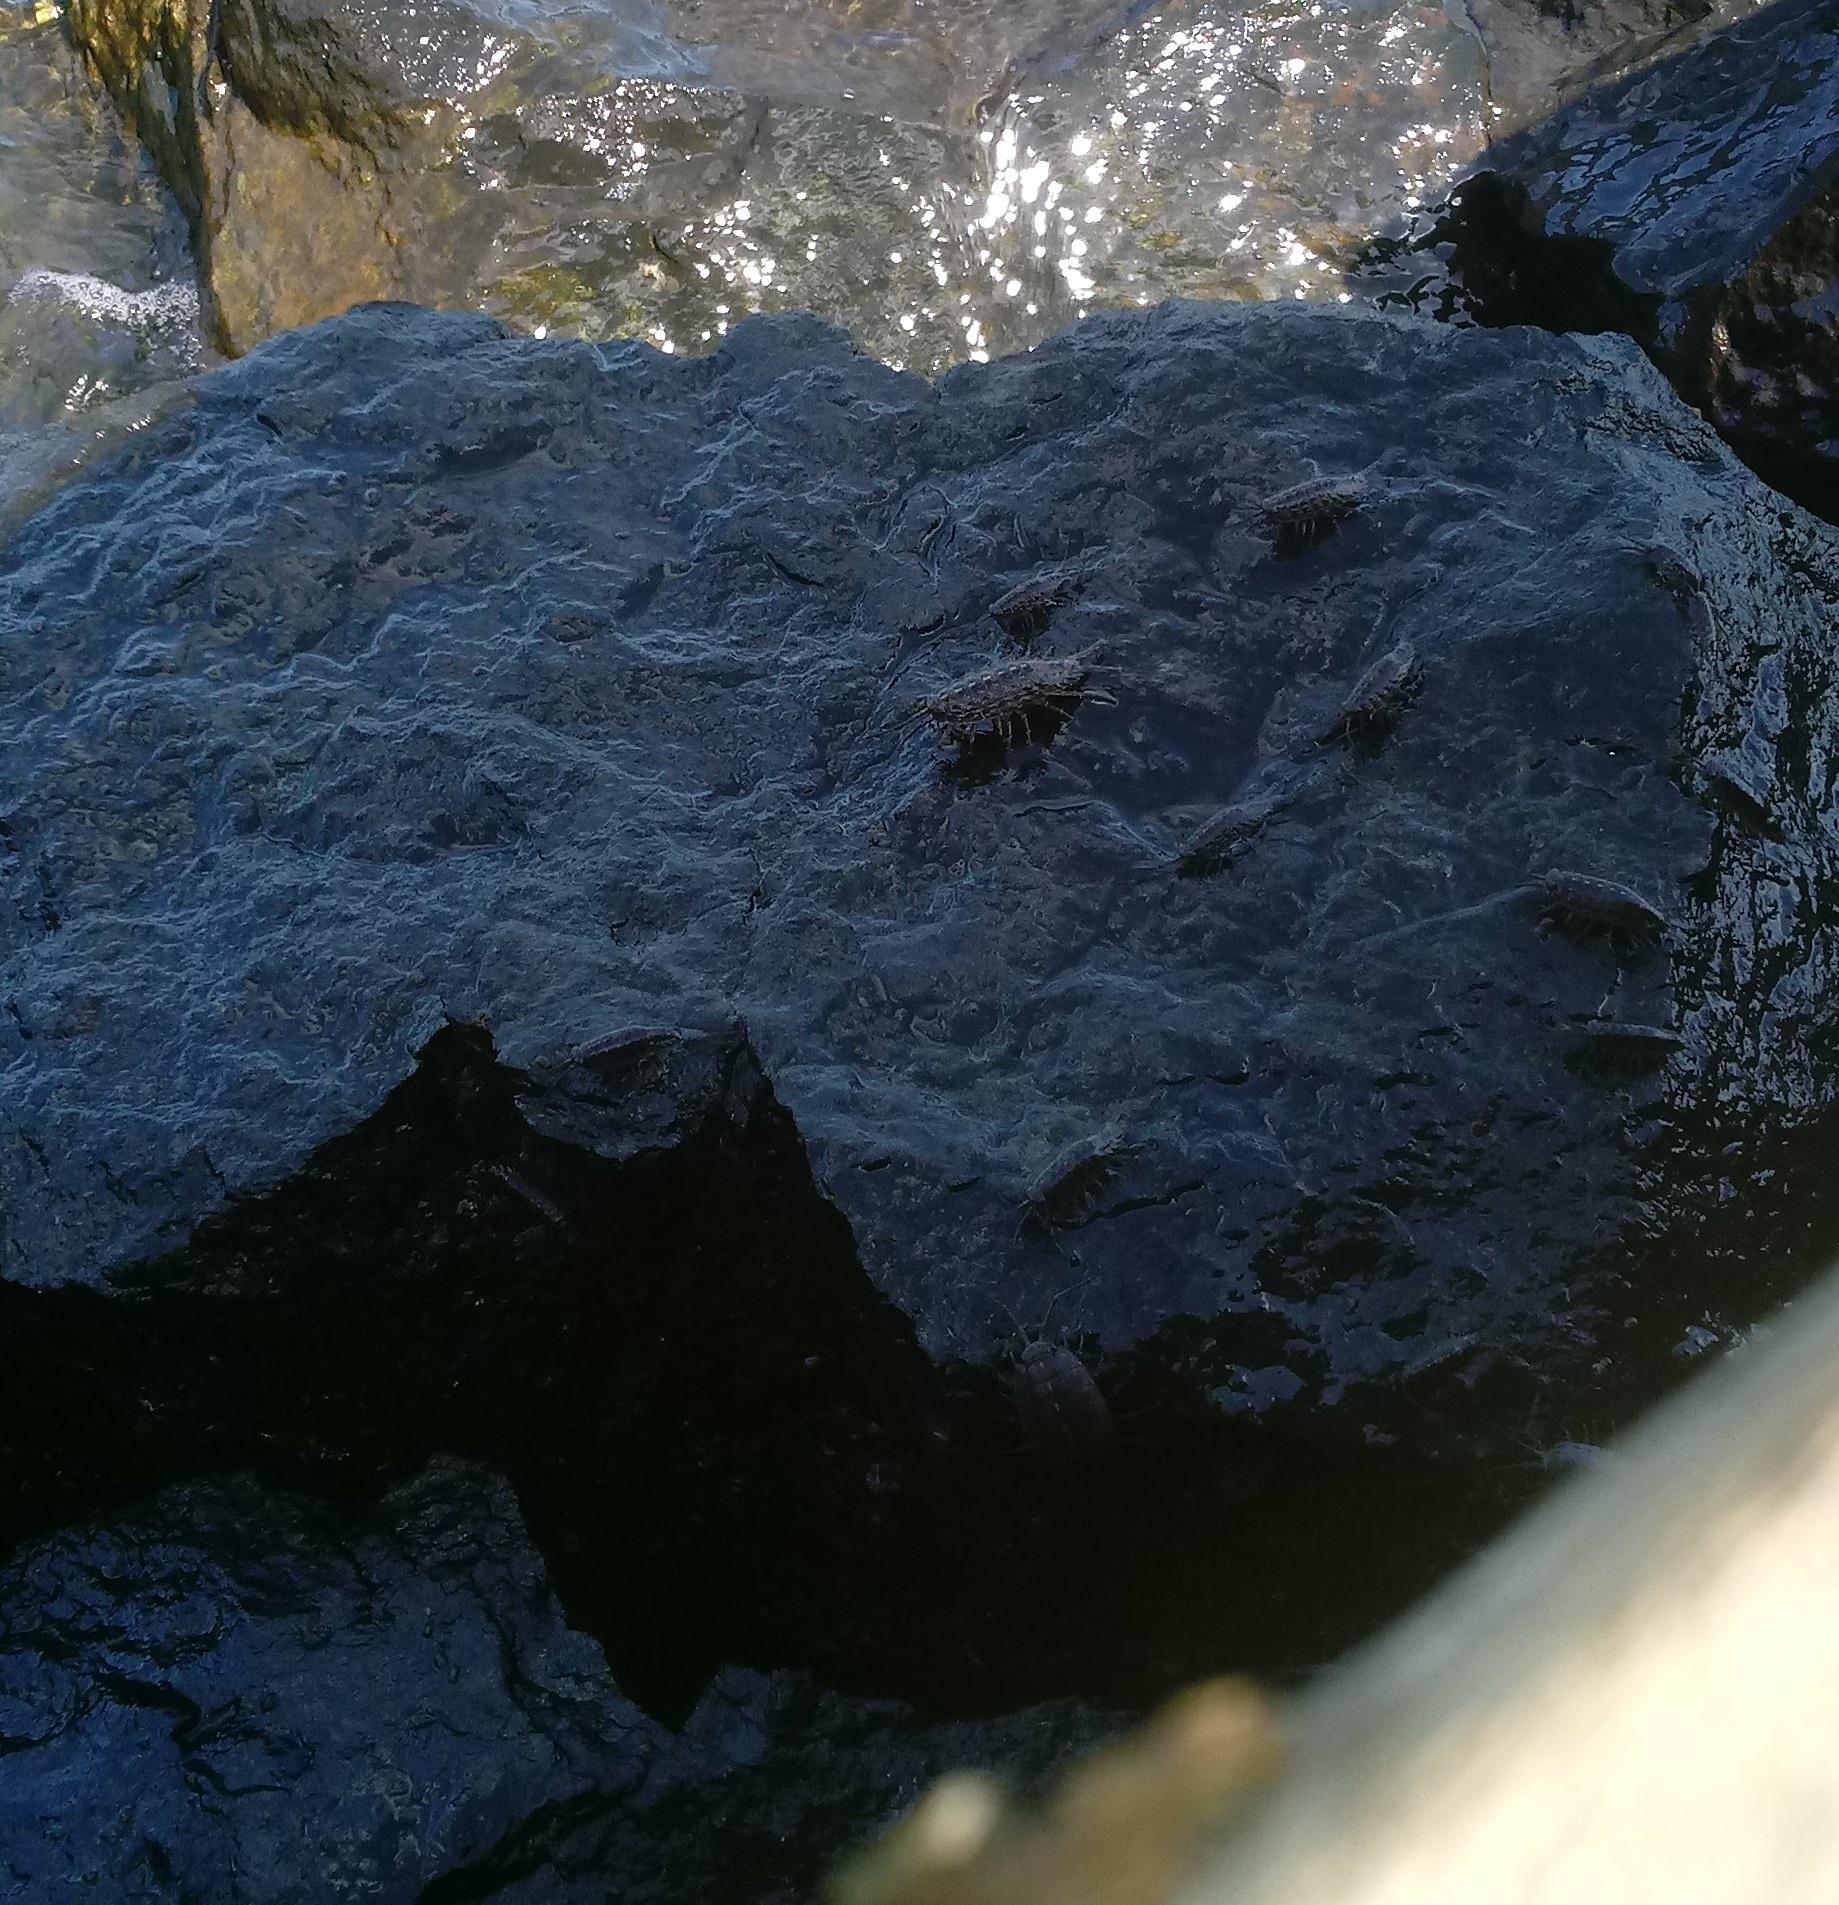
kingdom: Animalia
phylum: Arthropoda
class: Malacostraca
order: Isopoda
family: Ligiidae
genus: Ligia
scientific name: Ligia exotica
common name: Wharf roach
